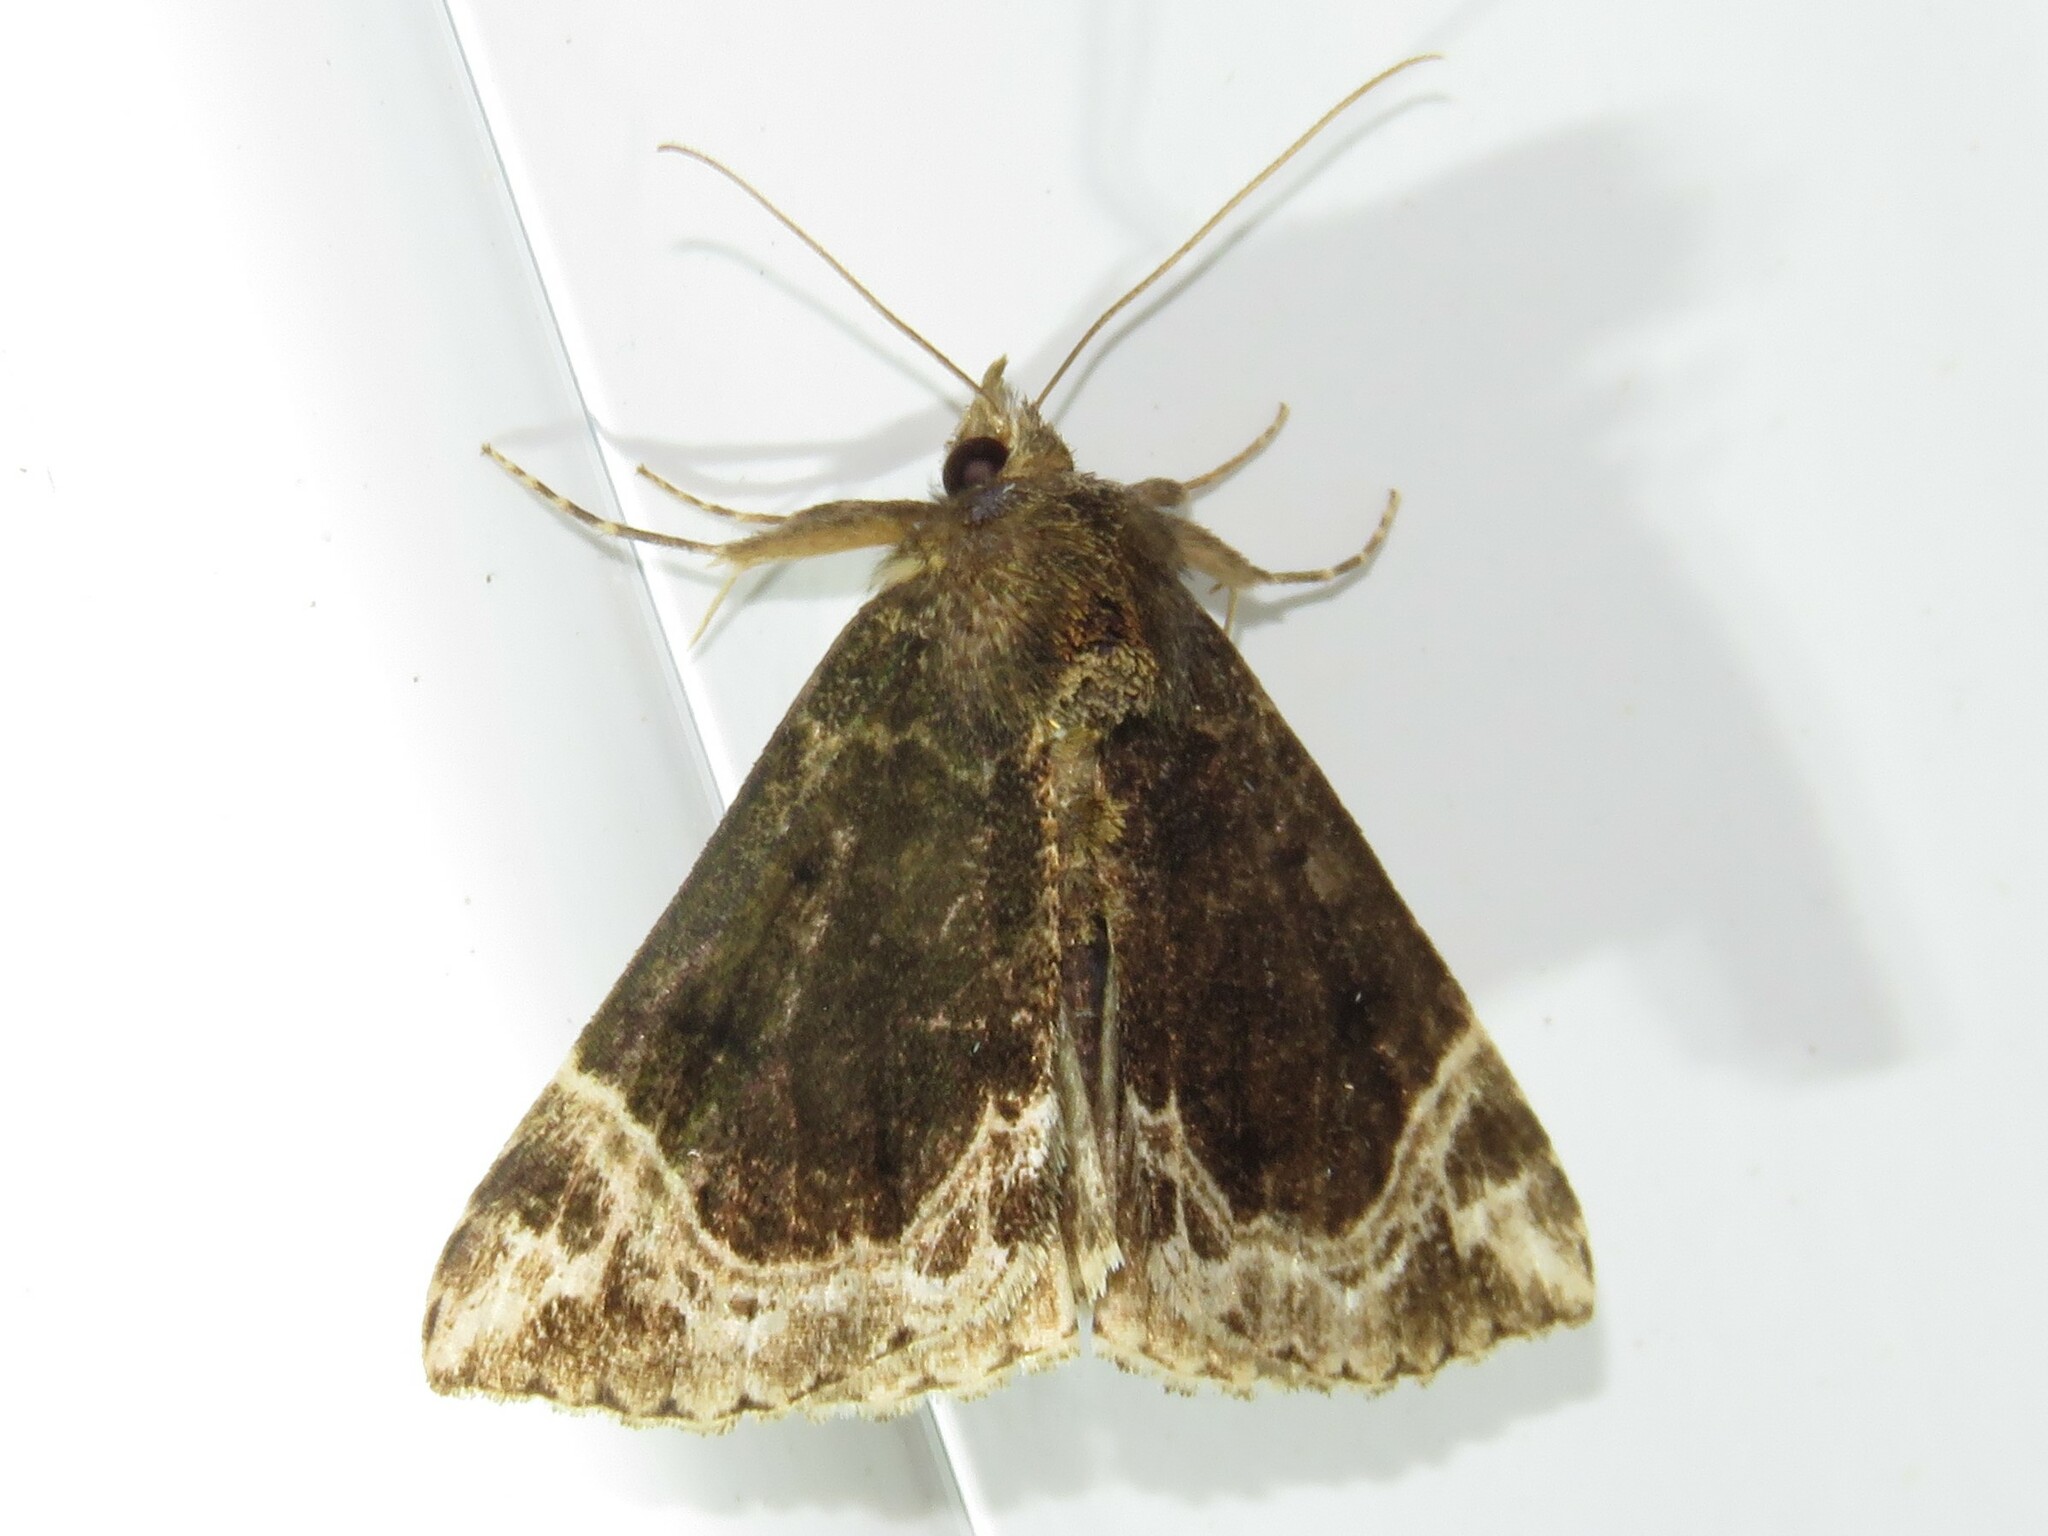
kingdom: Animalia
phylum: Arthropoda
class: Insecta
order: Lepidoptera
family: Erebidae
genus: Hypena
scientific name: Hypena abalienalis
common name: White-lined snout
